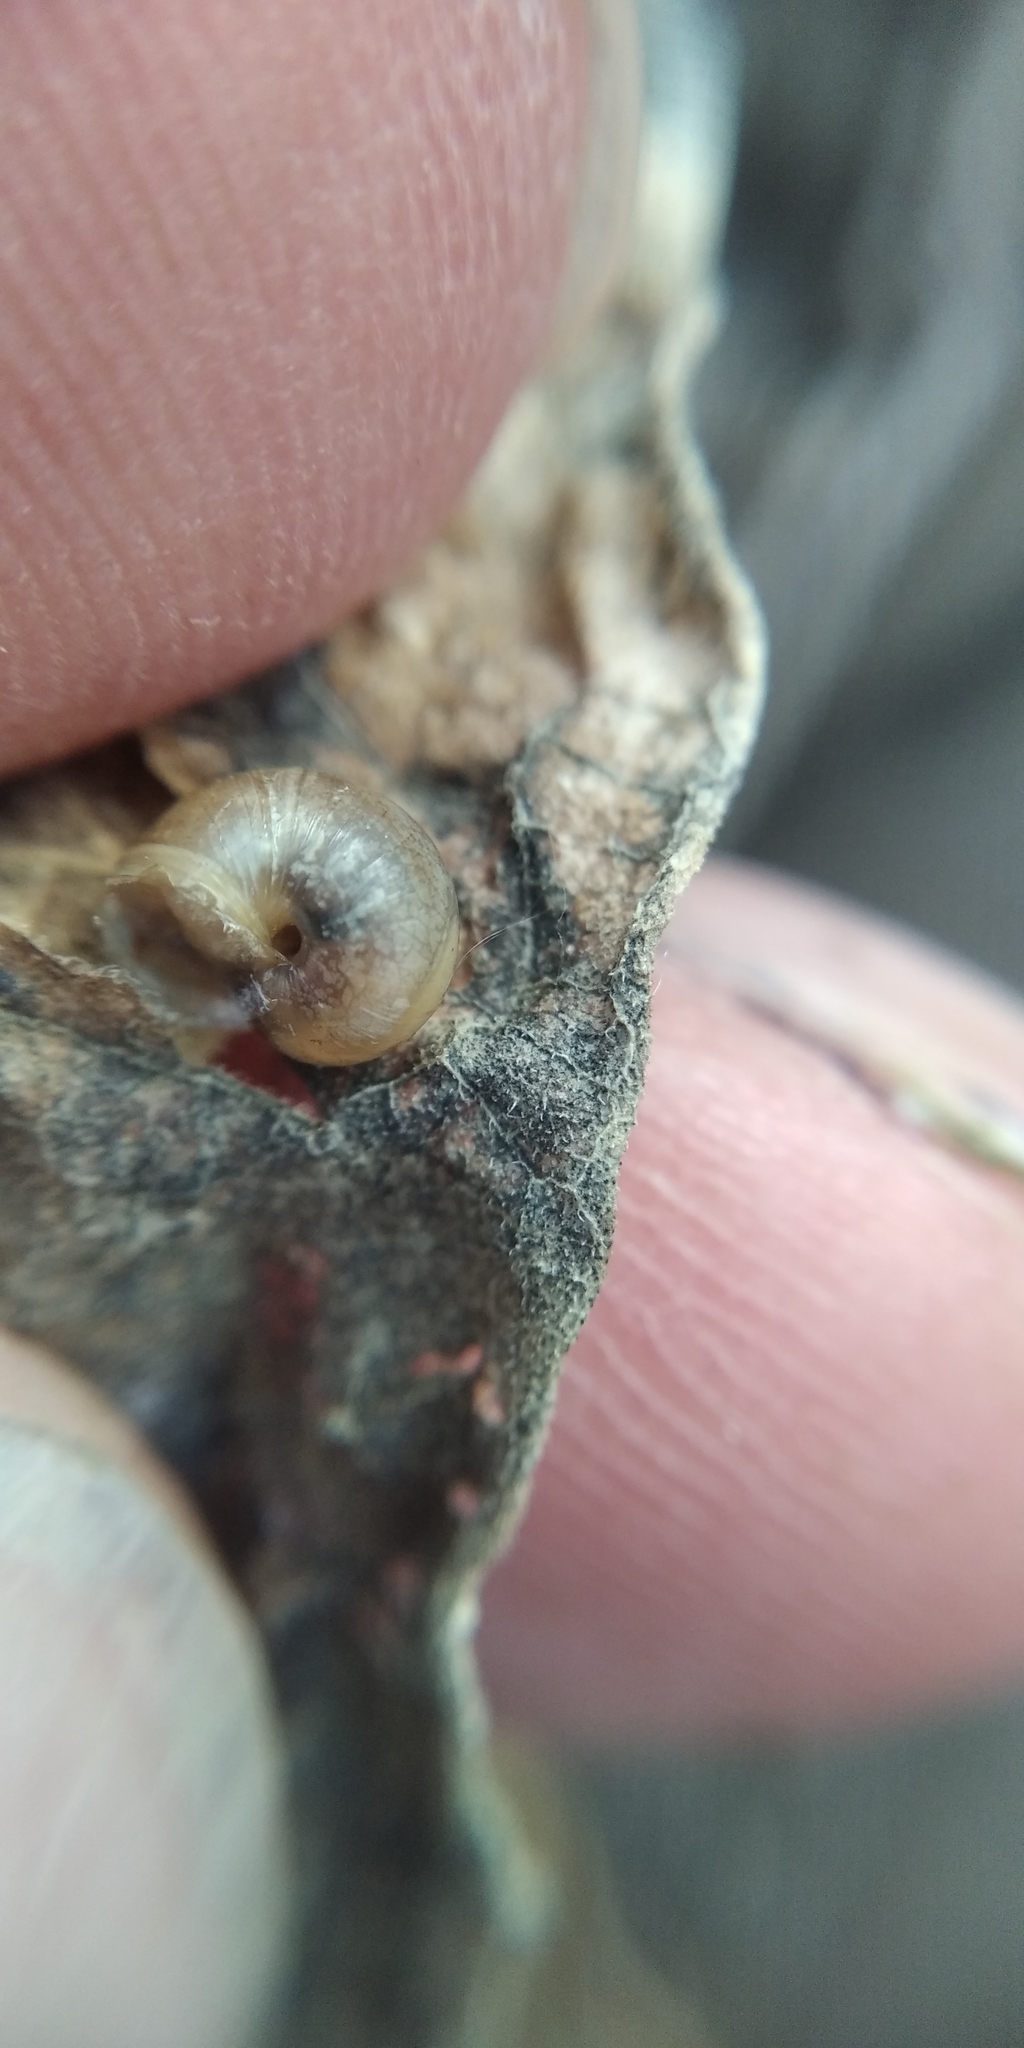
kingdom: Animalia
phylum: Mollusca
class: Gastropoda
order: Stylommatophora
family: Helicidae
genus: Caucasotachea
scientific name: Caucasotachea vindobonensis
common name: European helicid land snail
